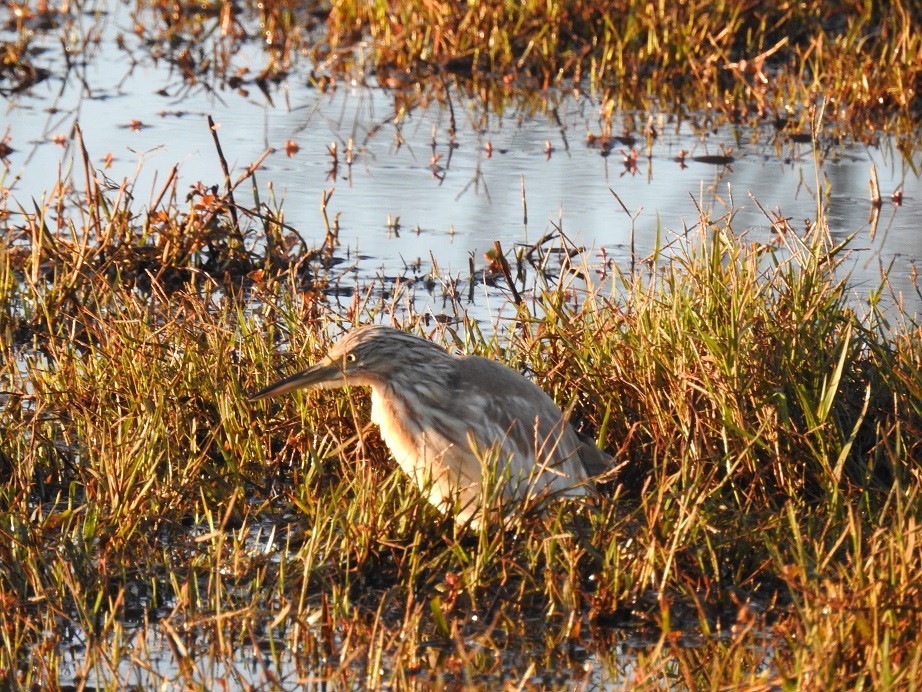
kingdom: Animalia
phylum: Chordata
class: Aves
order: Pelecaniformes
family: Ardeidae
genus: Ardeola
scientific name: Ardeola ralloides
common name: Squacco heron
